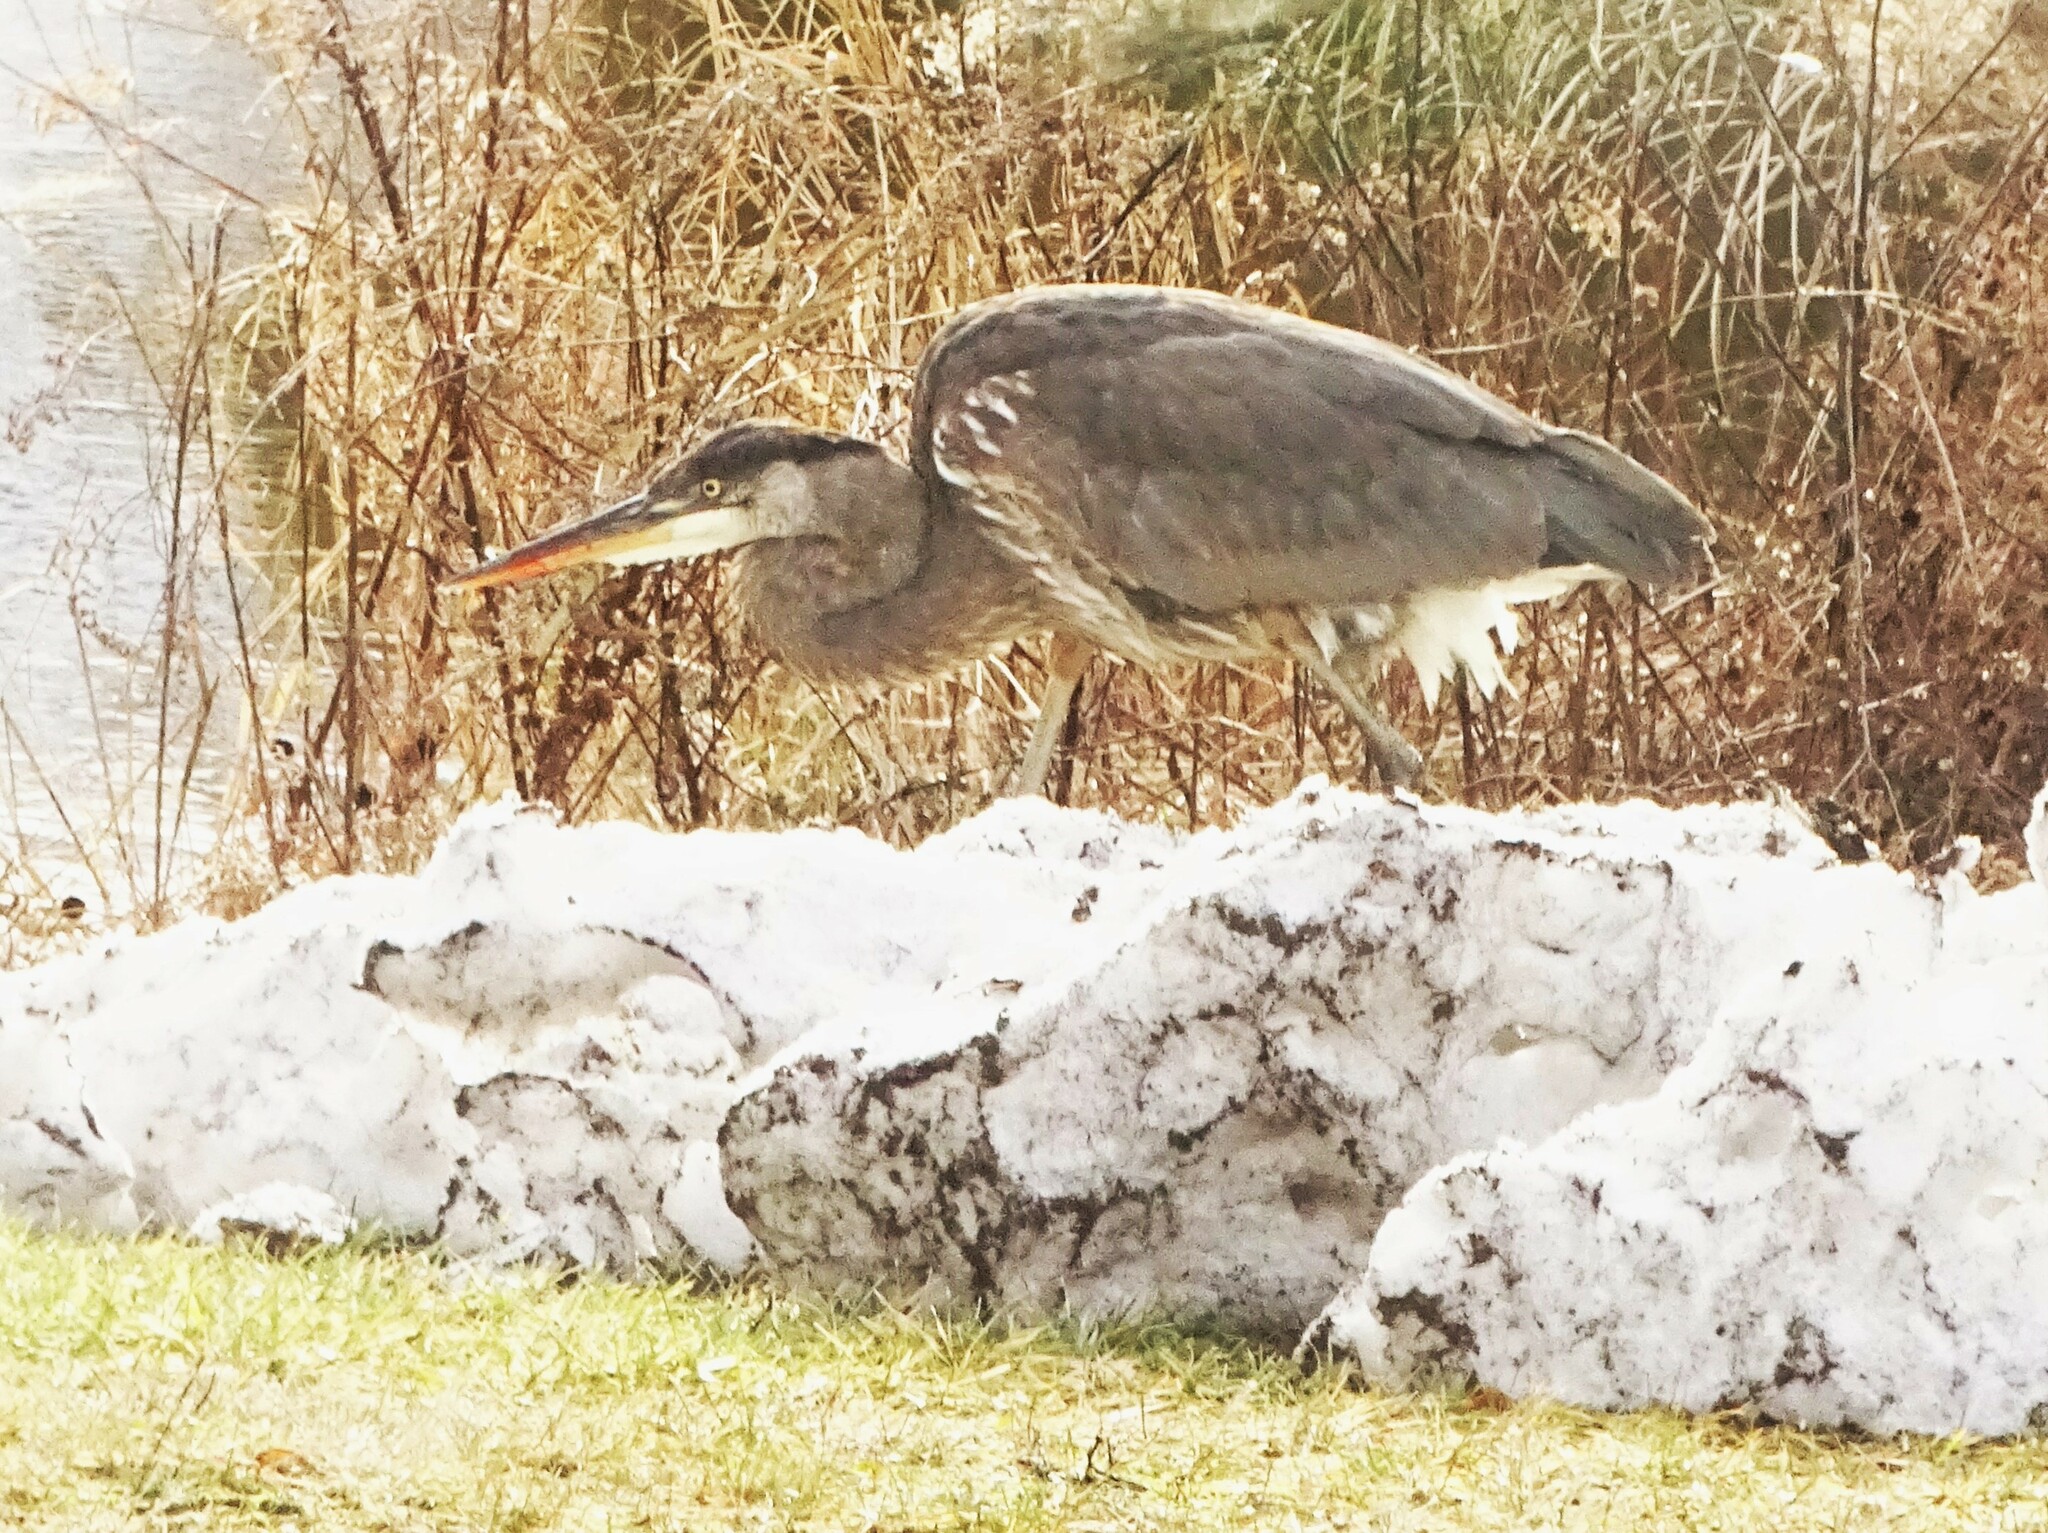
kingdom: Animalia
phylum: Chordata
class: Aves
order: Pelecaniformes
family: Ardeidae
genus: Ardea
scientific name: Ardea herodias
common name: Great blue heron
